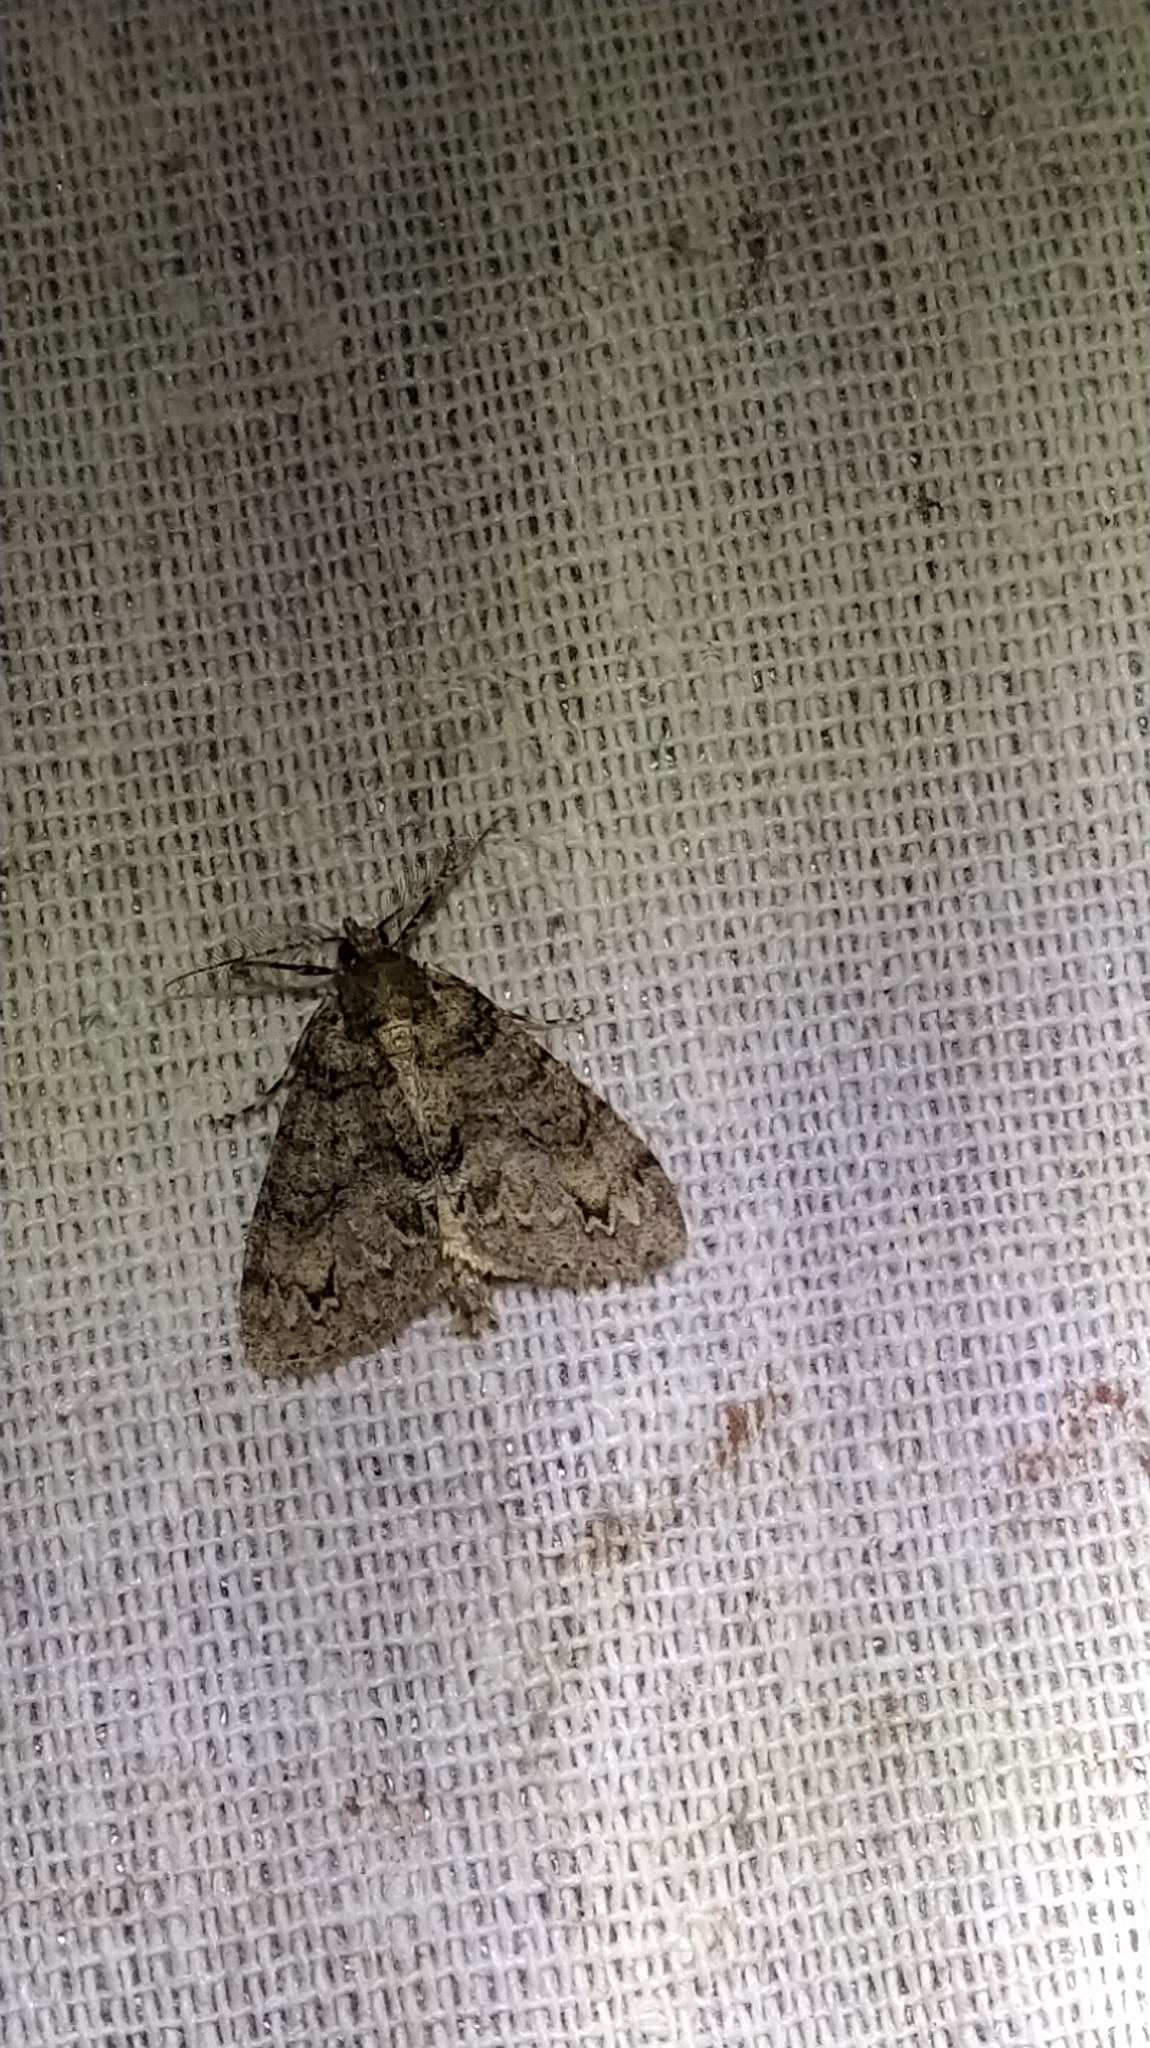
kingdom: Animalia
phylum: Arthropoda
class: Insecta
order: Lepidoptera
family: Geometridae
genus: Pseudocoremia
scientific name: Pseudocoremia suavis
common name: Common forest looper
